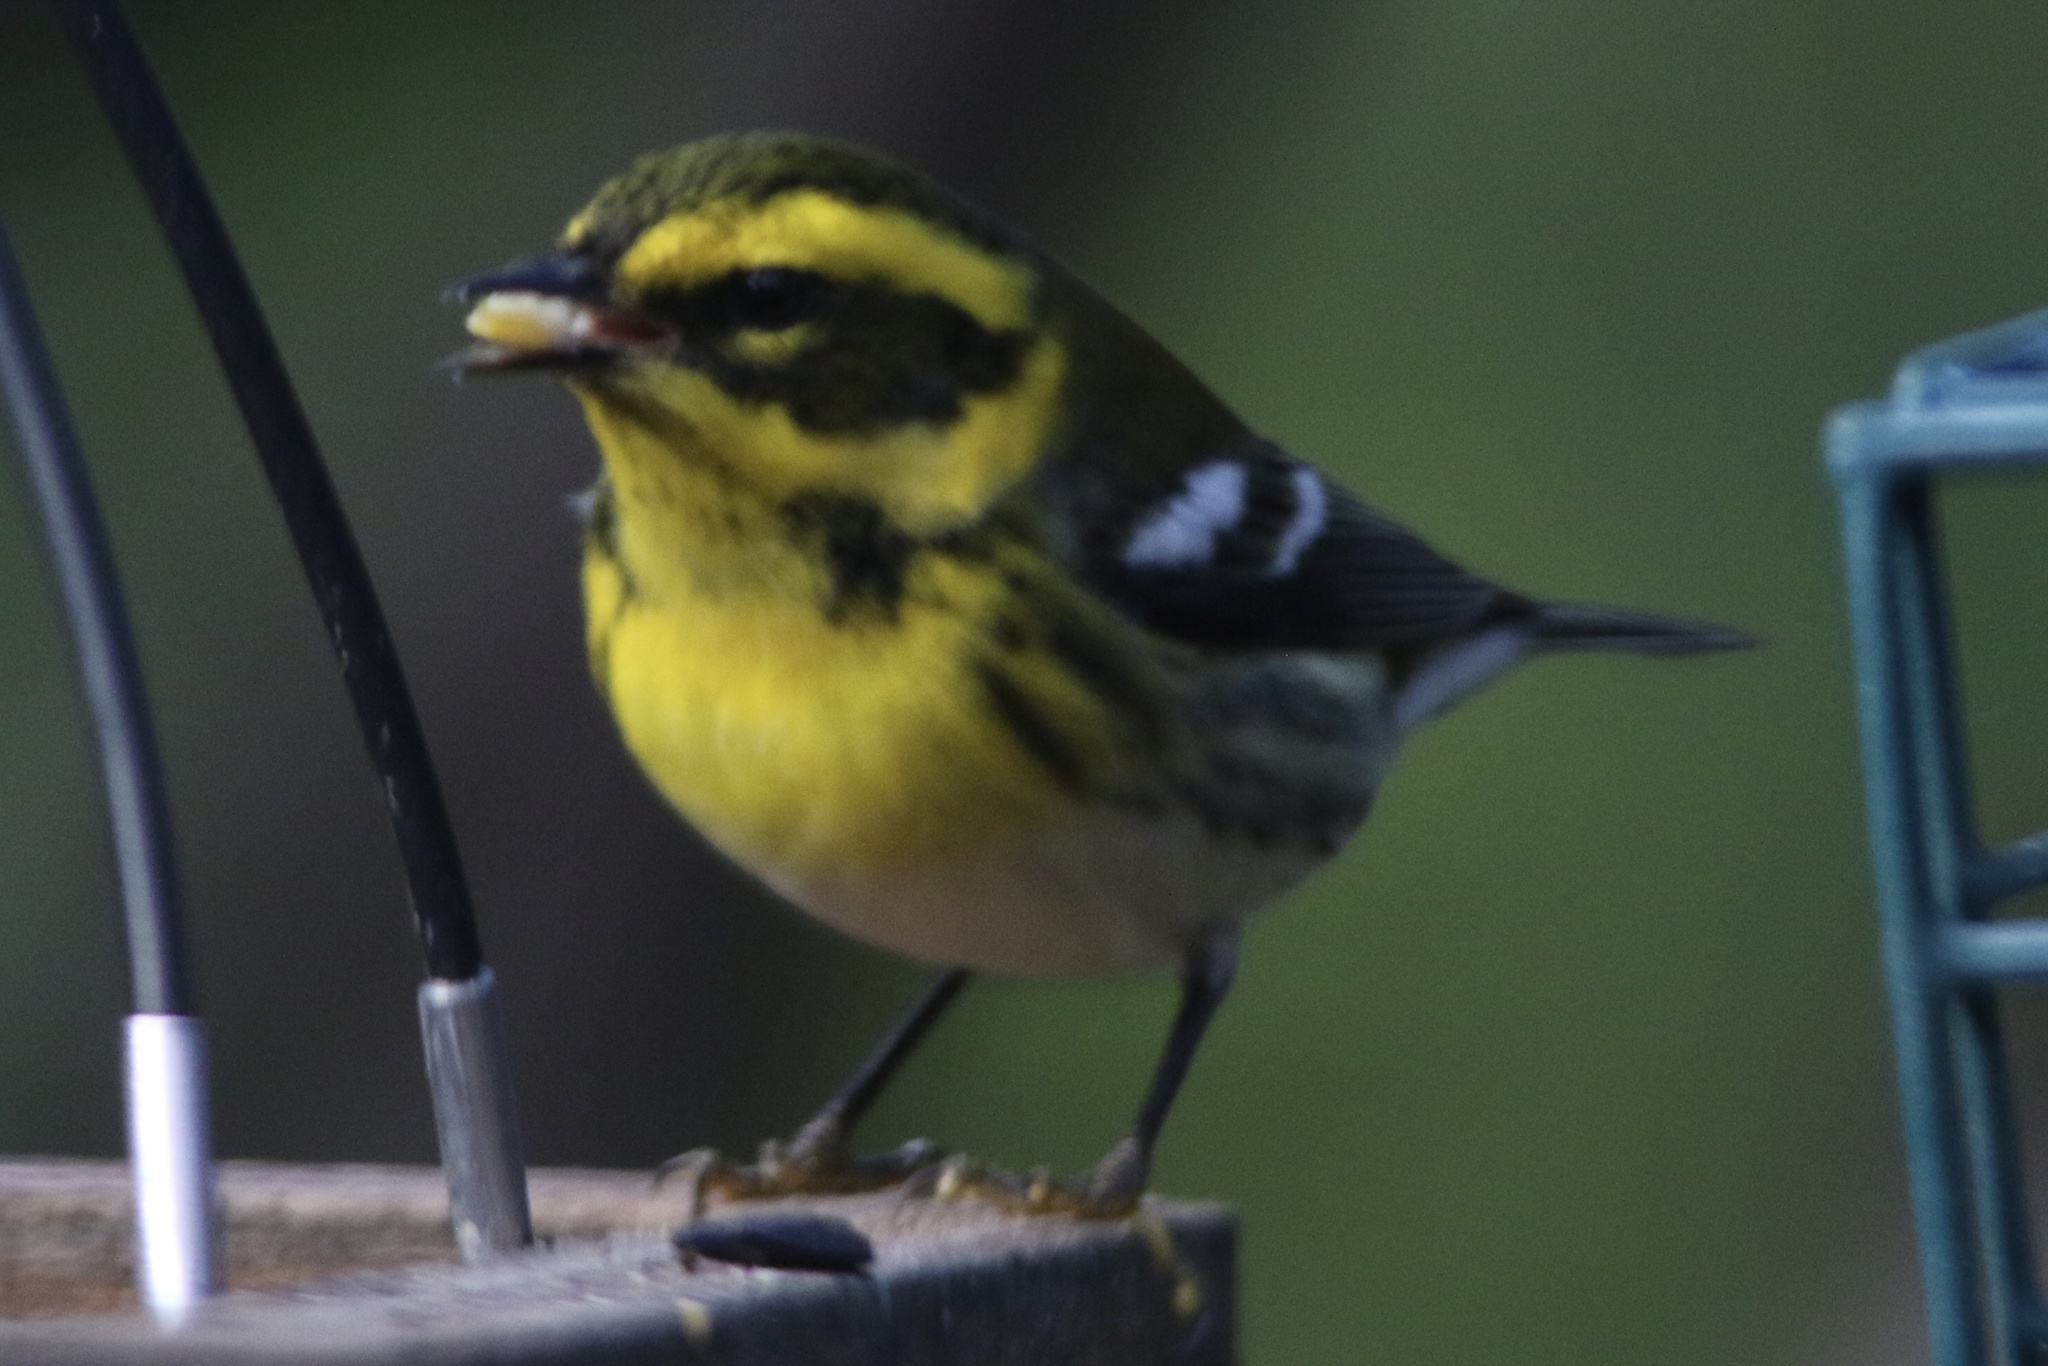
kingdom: Animalia
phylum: Chordata
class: Aves
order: Passeriformes
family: Parulidae
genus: Setophaga
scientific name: Setophaga townsendi
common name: Townsend's warbler
